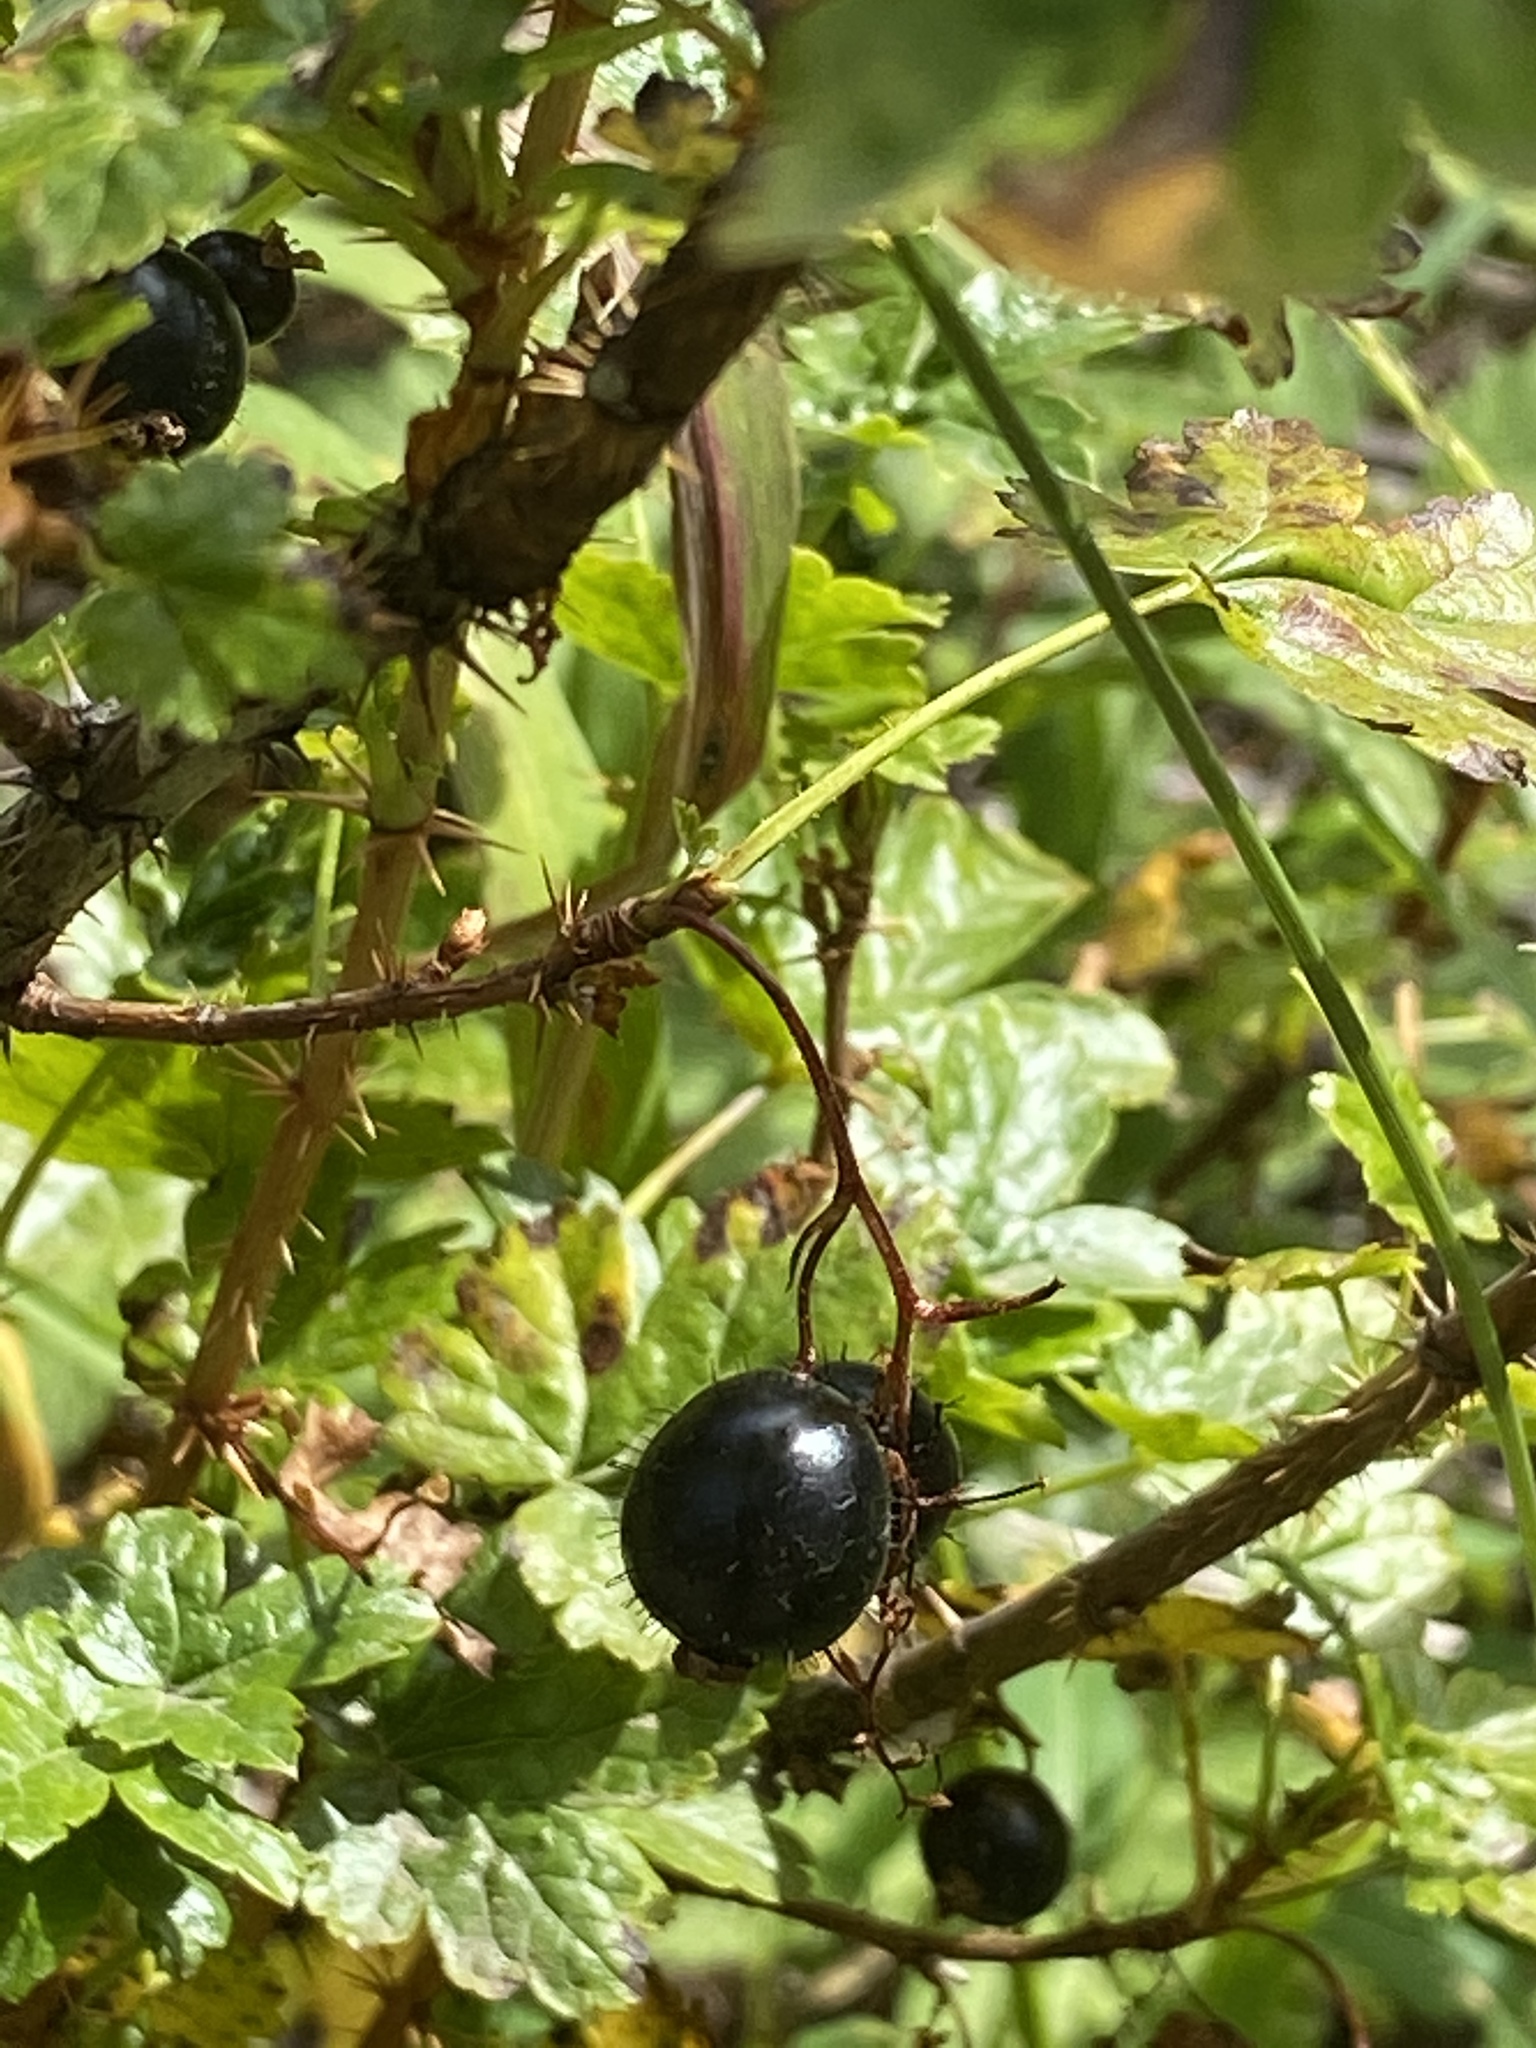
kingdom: Plantae
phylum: Tracheophyta
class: Magnoliopsida
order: Saxifragales
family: Grossulariaceae
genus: Ribes
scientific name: Ribes lacustre
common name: Black gooseberry
